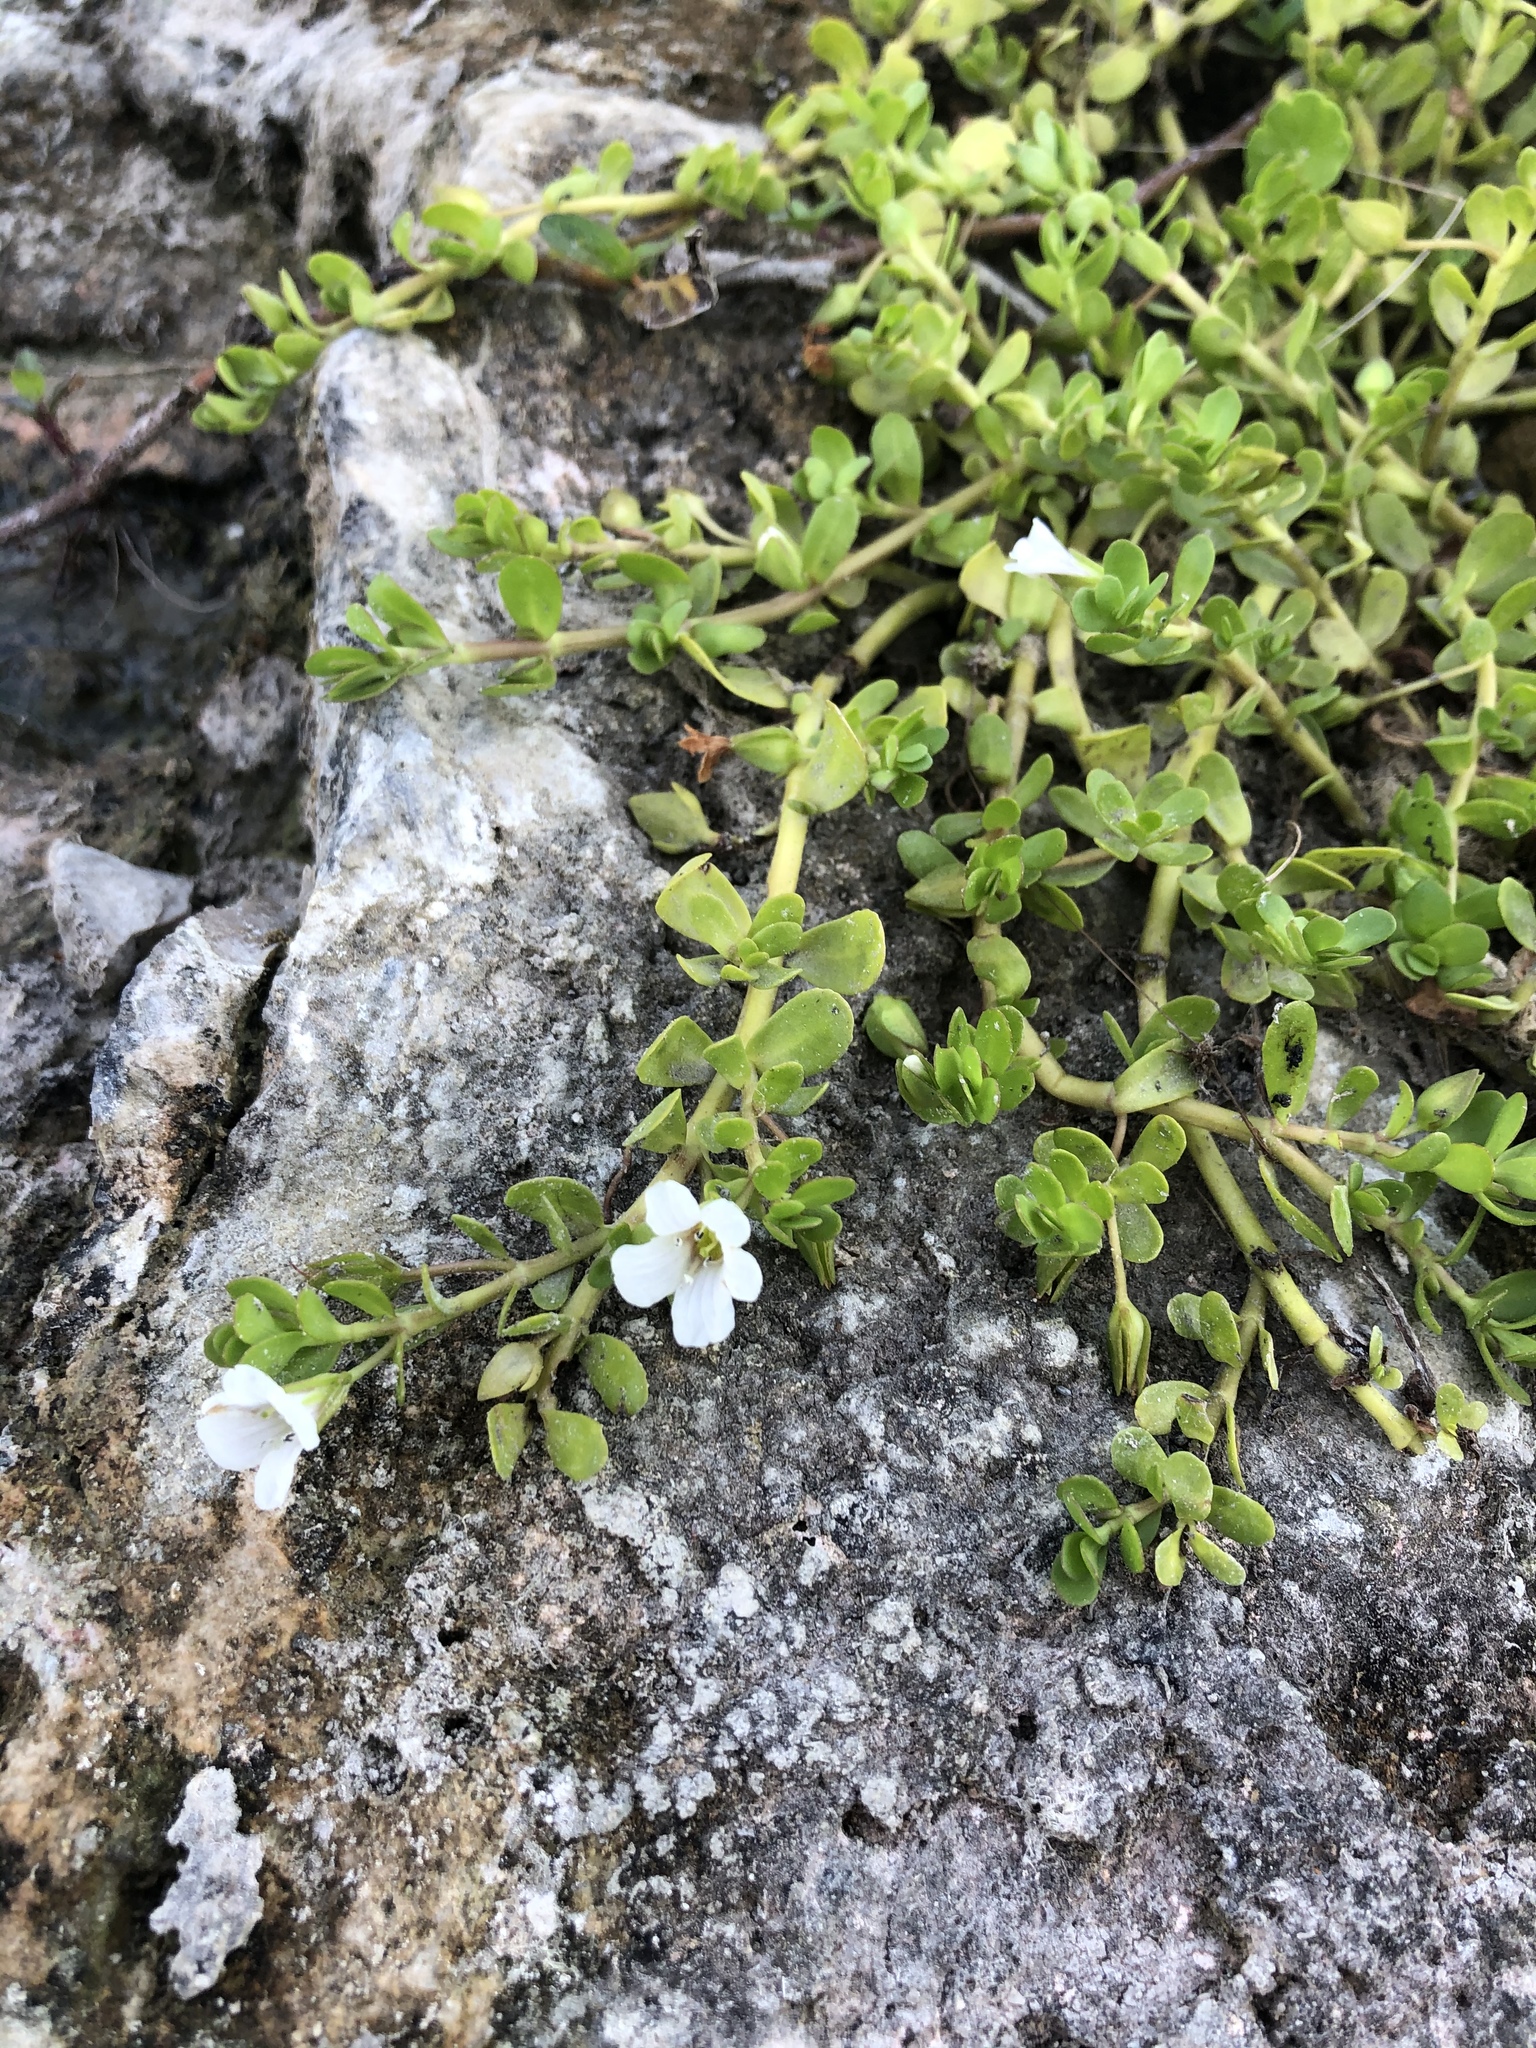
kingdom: Plantae
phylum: Tracheophyta
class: Magnoliopsida
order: Lamiales
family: Plantaginaceae
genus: Bacopa
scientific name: Bacopa monnieri
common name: Indian-pennywort
